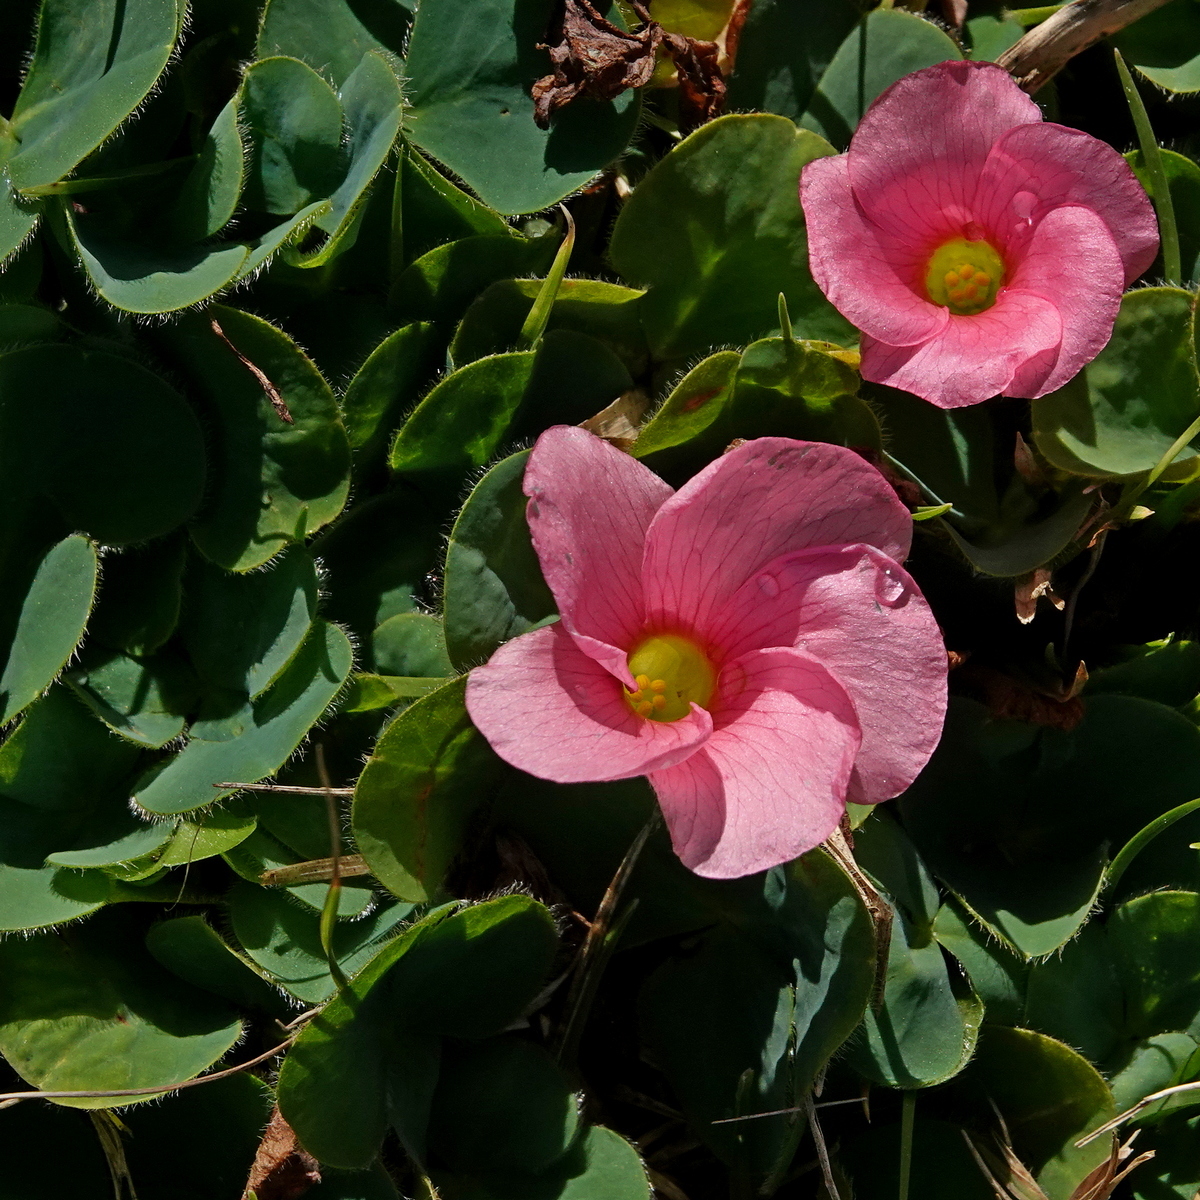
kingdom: Plantae
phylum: Tracheophyta
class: Magnoliopsida
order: Oxalidales
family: Oxalidaceae
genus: Oxalis
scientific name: Oxalis purpurea
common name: Purple woodsorrel
